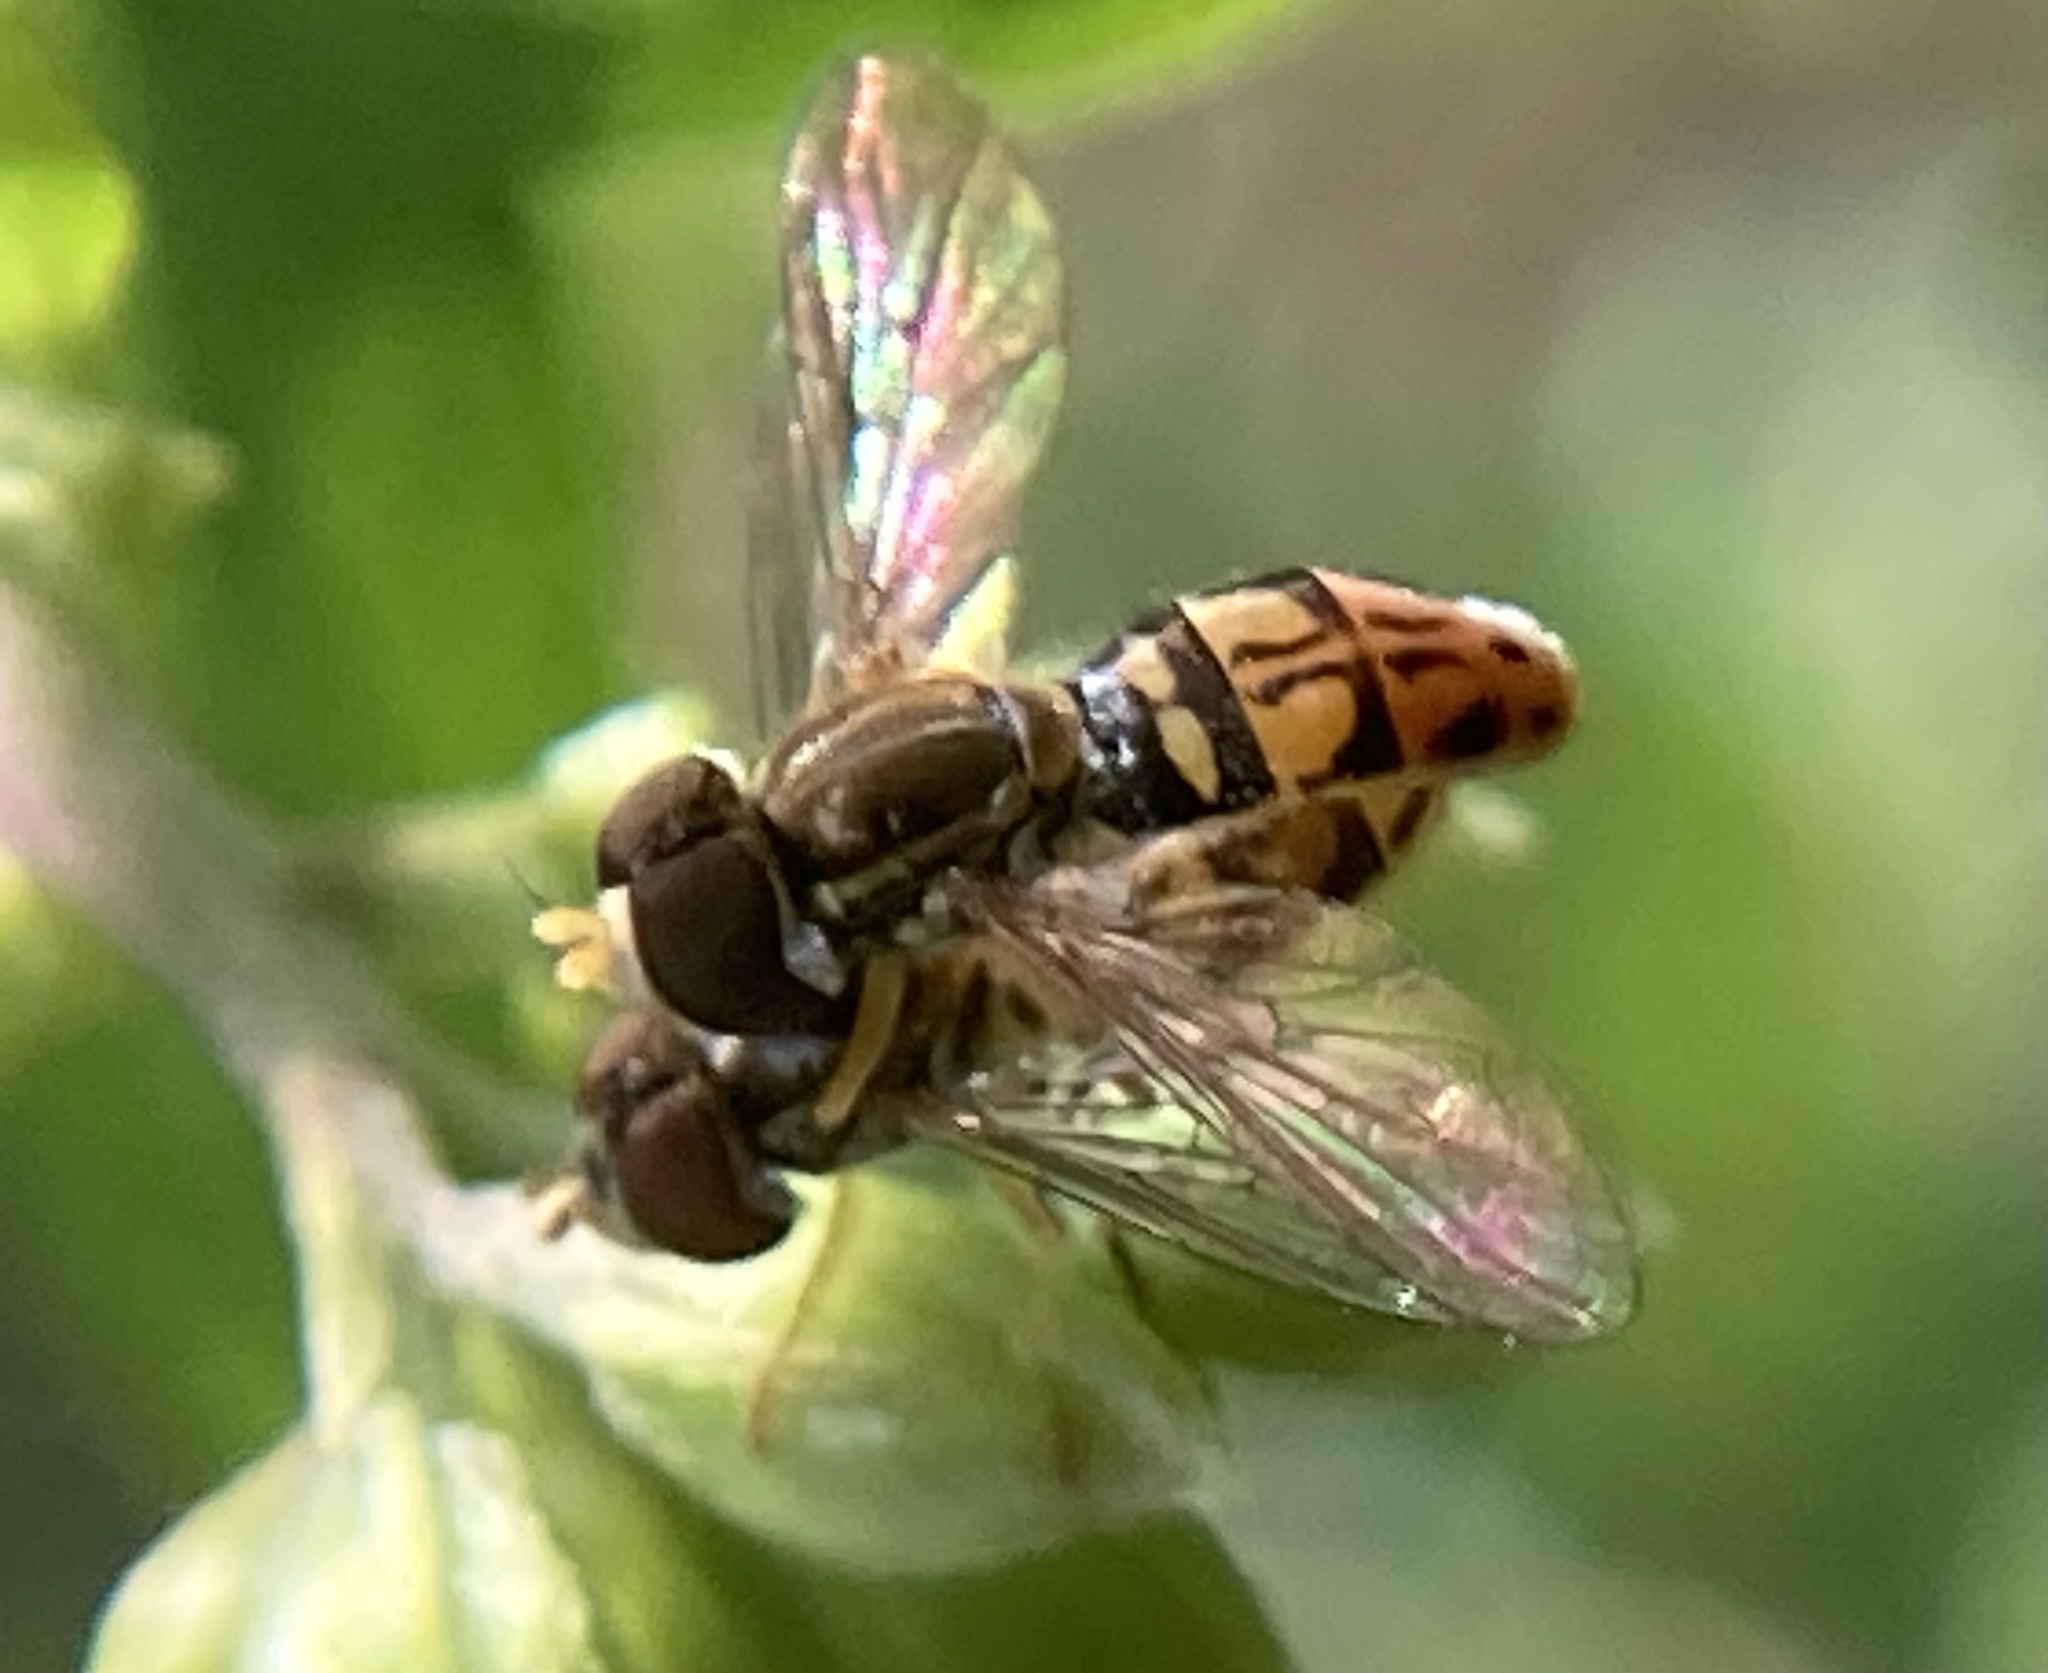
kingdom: Animalia
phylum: Arthropoda
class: Insecta
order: Diptera
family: Syrphidae
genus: Toxomerus
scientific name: Toxomerus marginatus
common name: Syrphid fly
